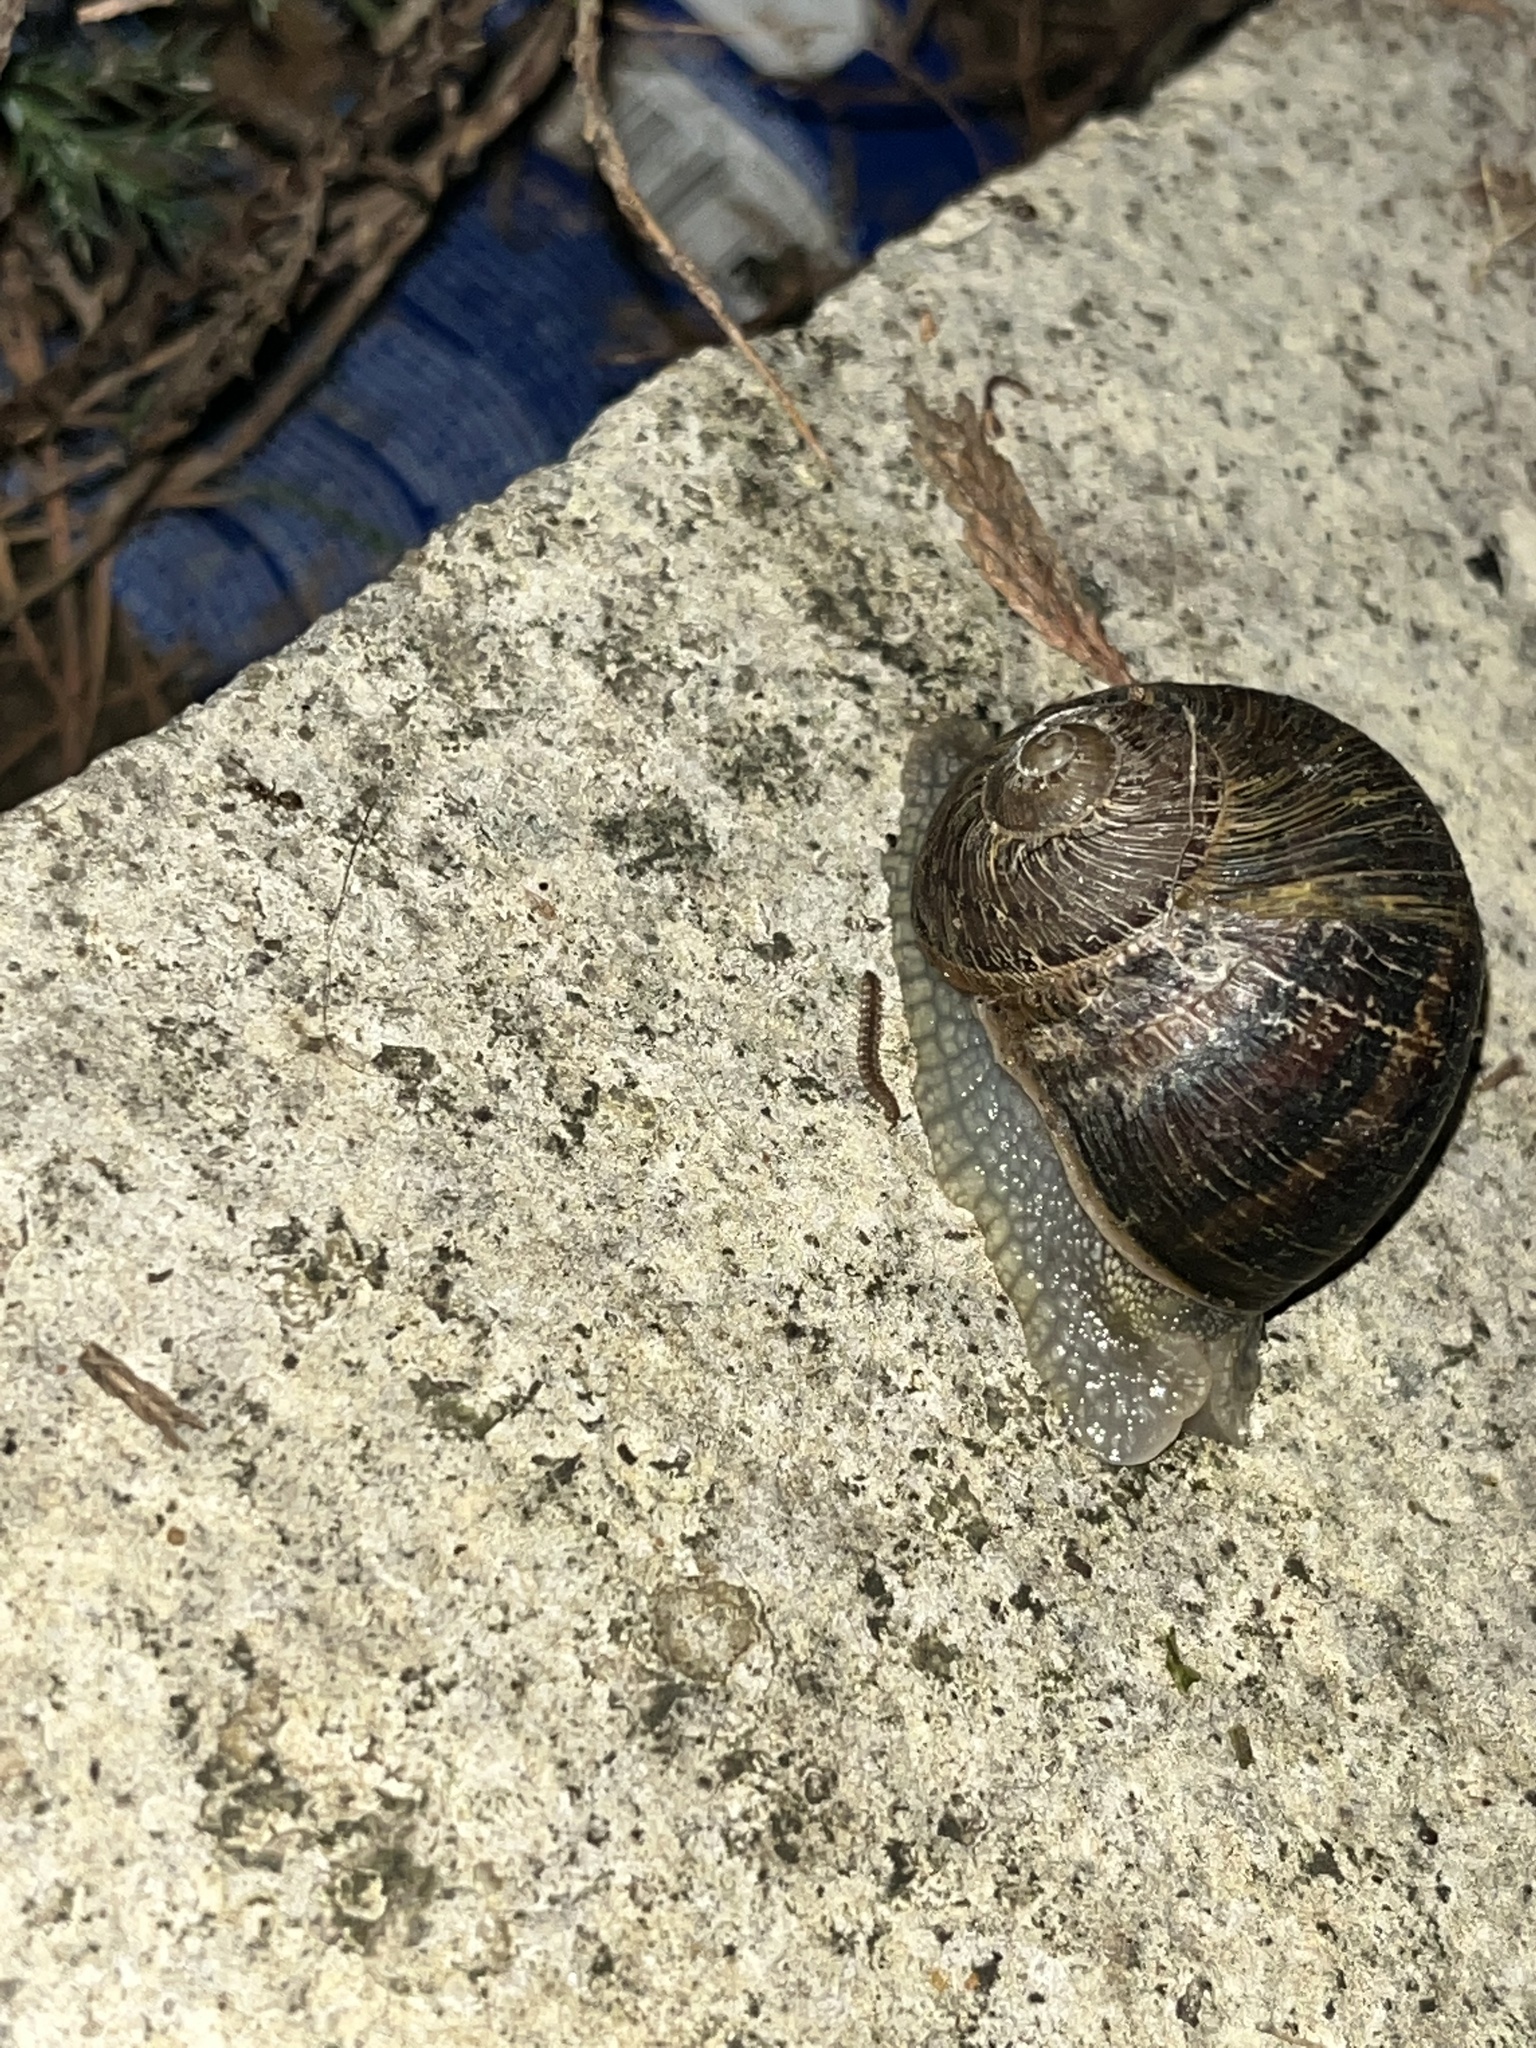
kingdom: Animalia
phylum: Mollusca
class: Gastropoda
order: Stylommatophora
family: Helicidae
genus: Cornu
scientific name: Cornu aspersum
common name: Brown garden snail
